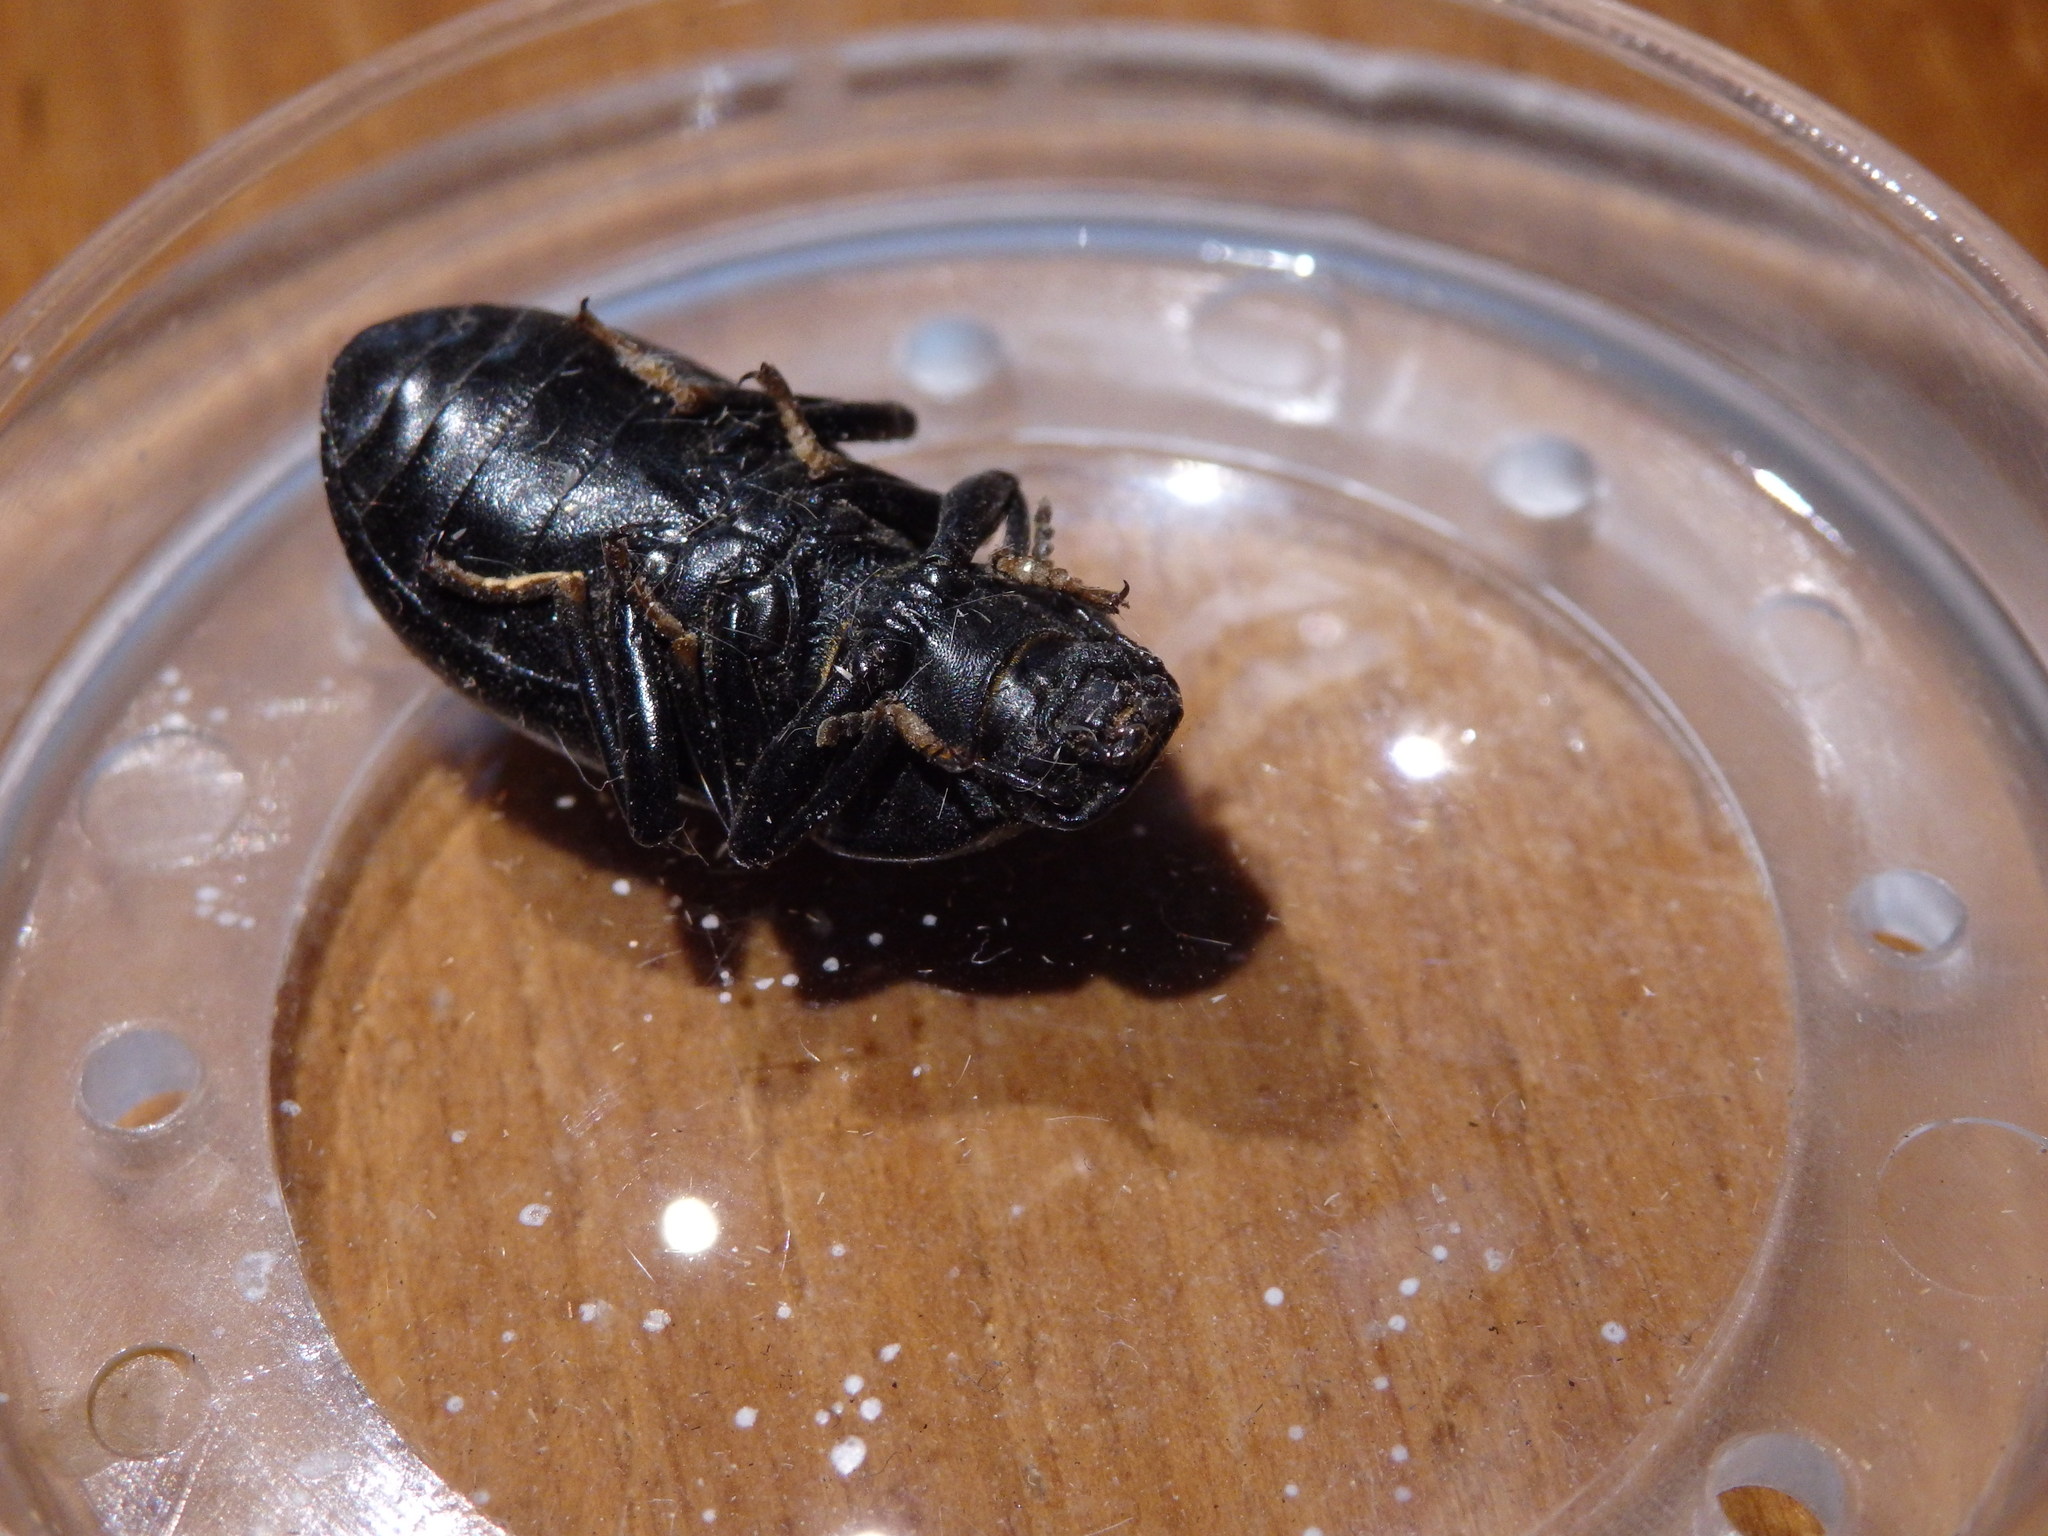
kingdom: Animalia
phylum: Arthropoda
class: Insecta
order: Coleoptera
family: Tenebrionidae
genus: Coelometopus
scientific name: Coelometopus clypeatus
